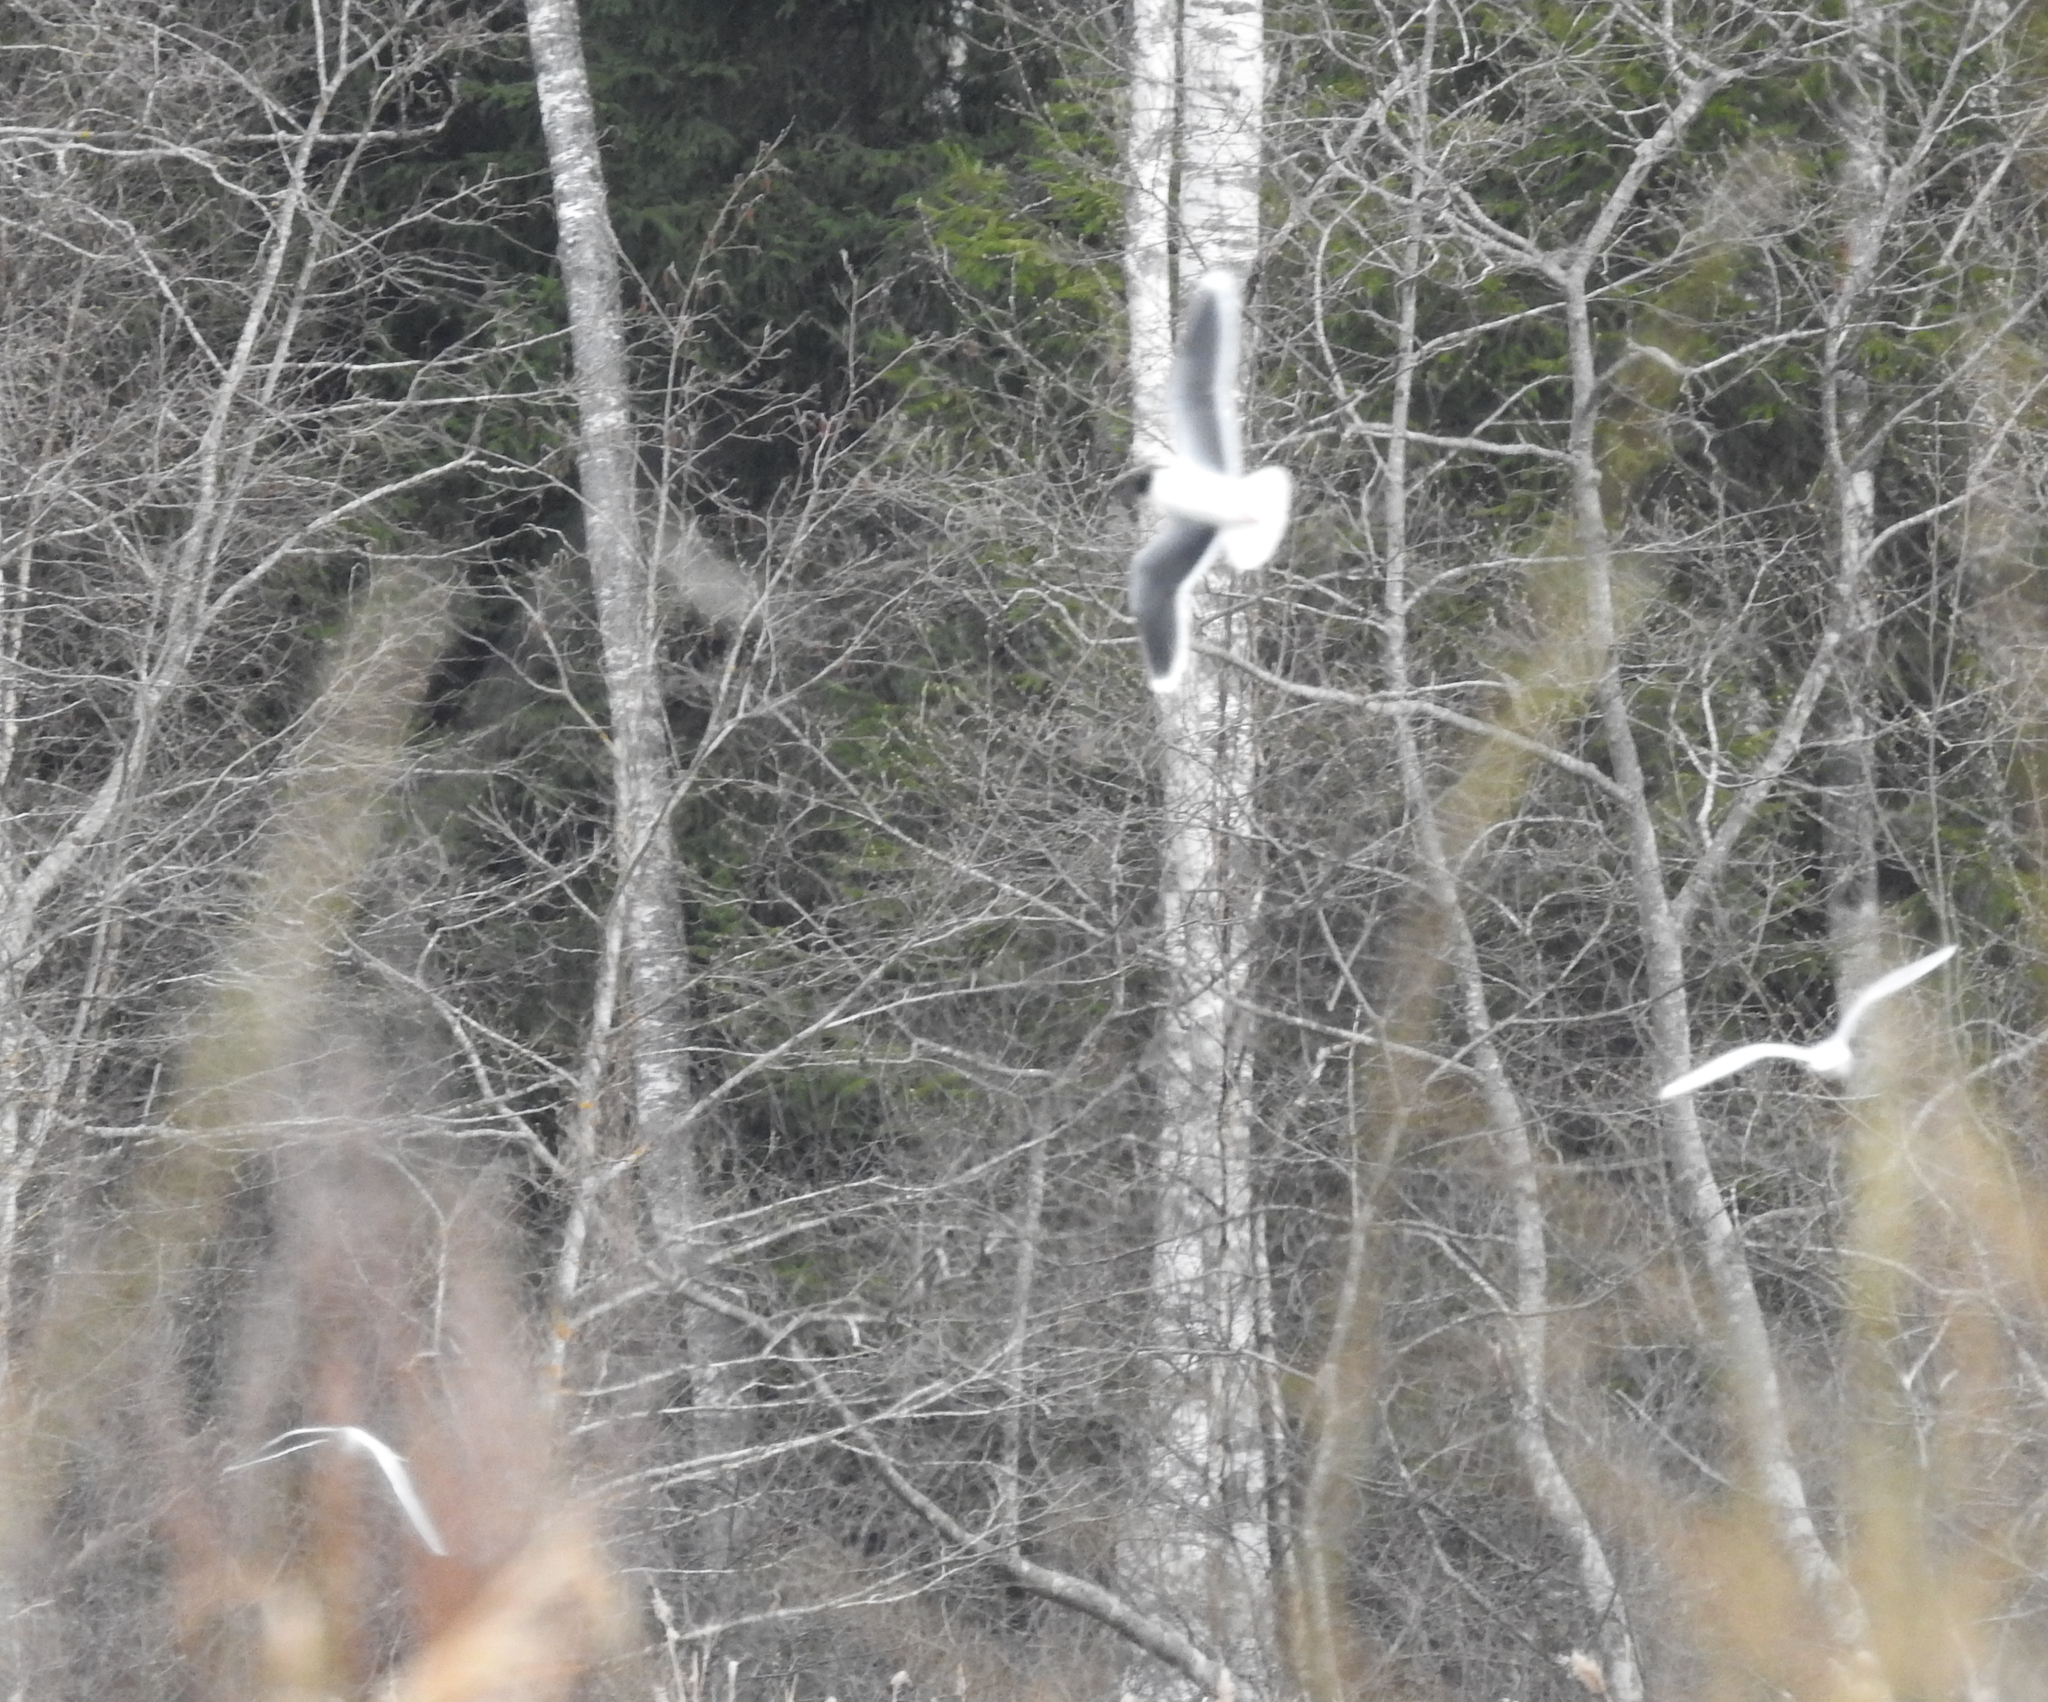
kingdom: Animalia
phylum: Chordata
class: Aves
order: Charadriiformes
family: Laridae
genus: Hydrocoloeus
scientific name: Hydrocoloeus minutus
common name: Little gull
